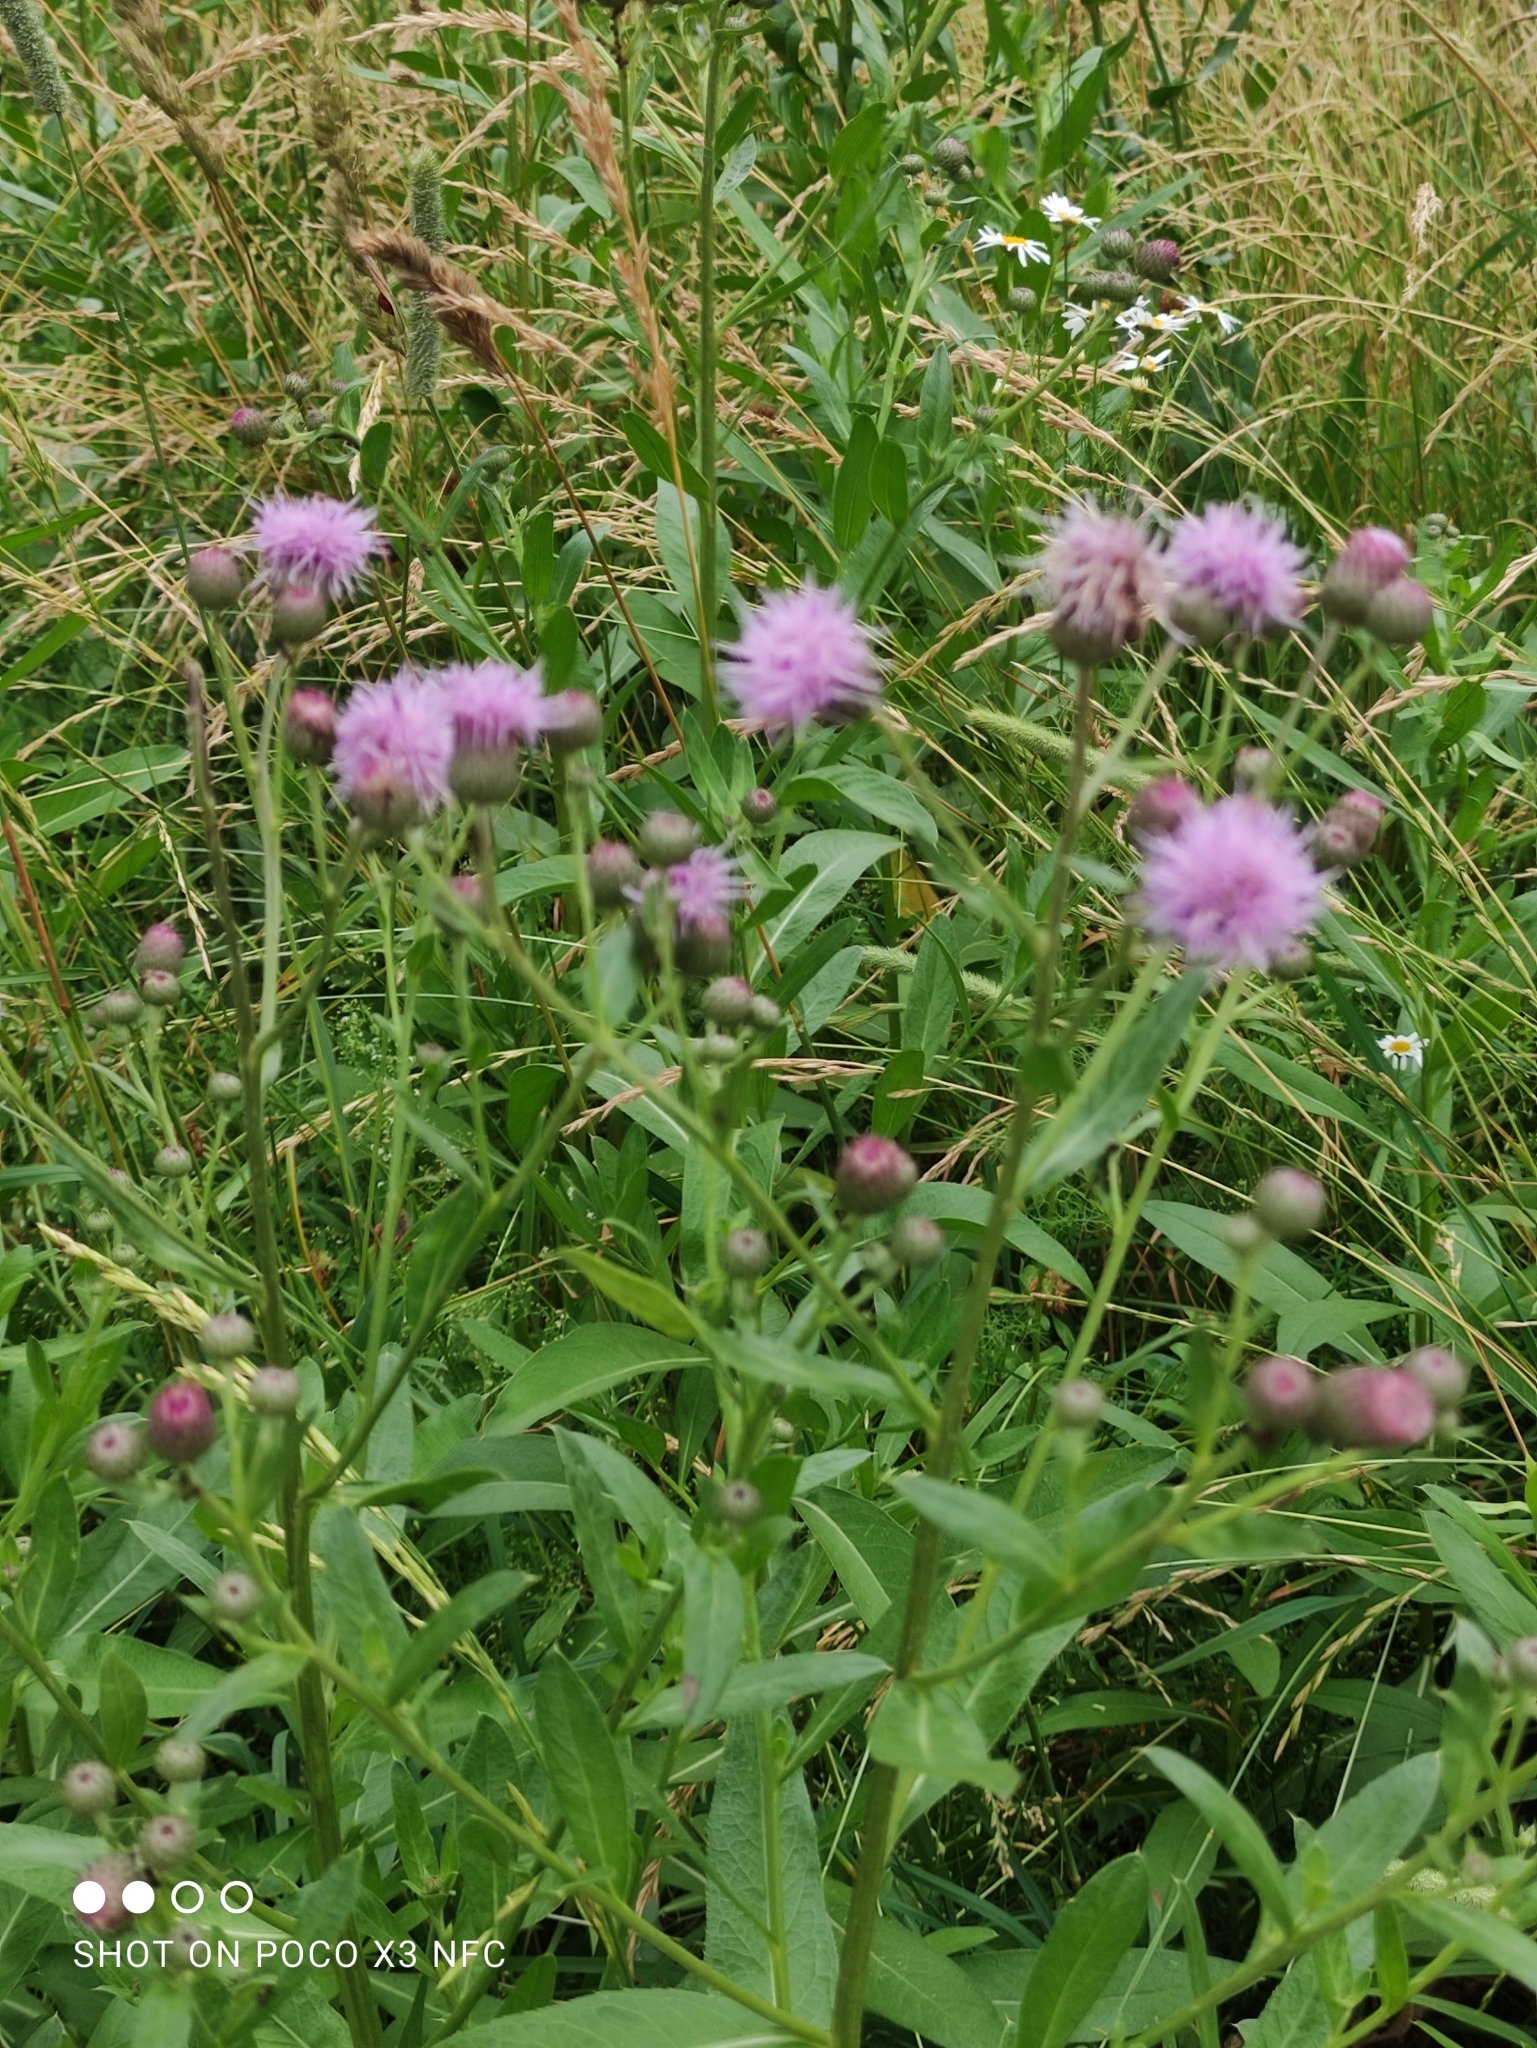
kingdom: Plantae
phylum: Tracheophyta
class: Magnoliopsida
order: Asterales
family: Asteraceae
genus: Cirsium
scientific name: Cirsium arvense
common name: Creeping thistle
